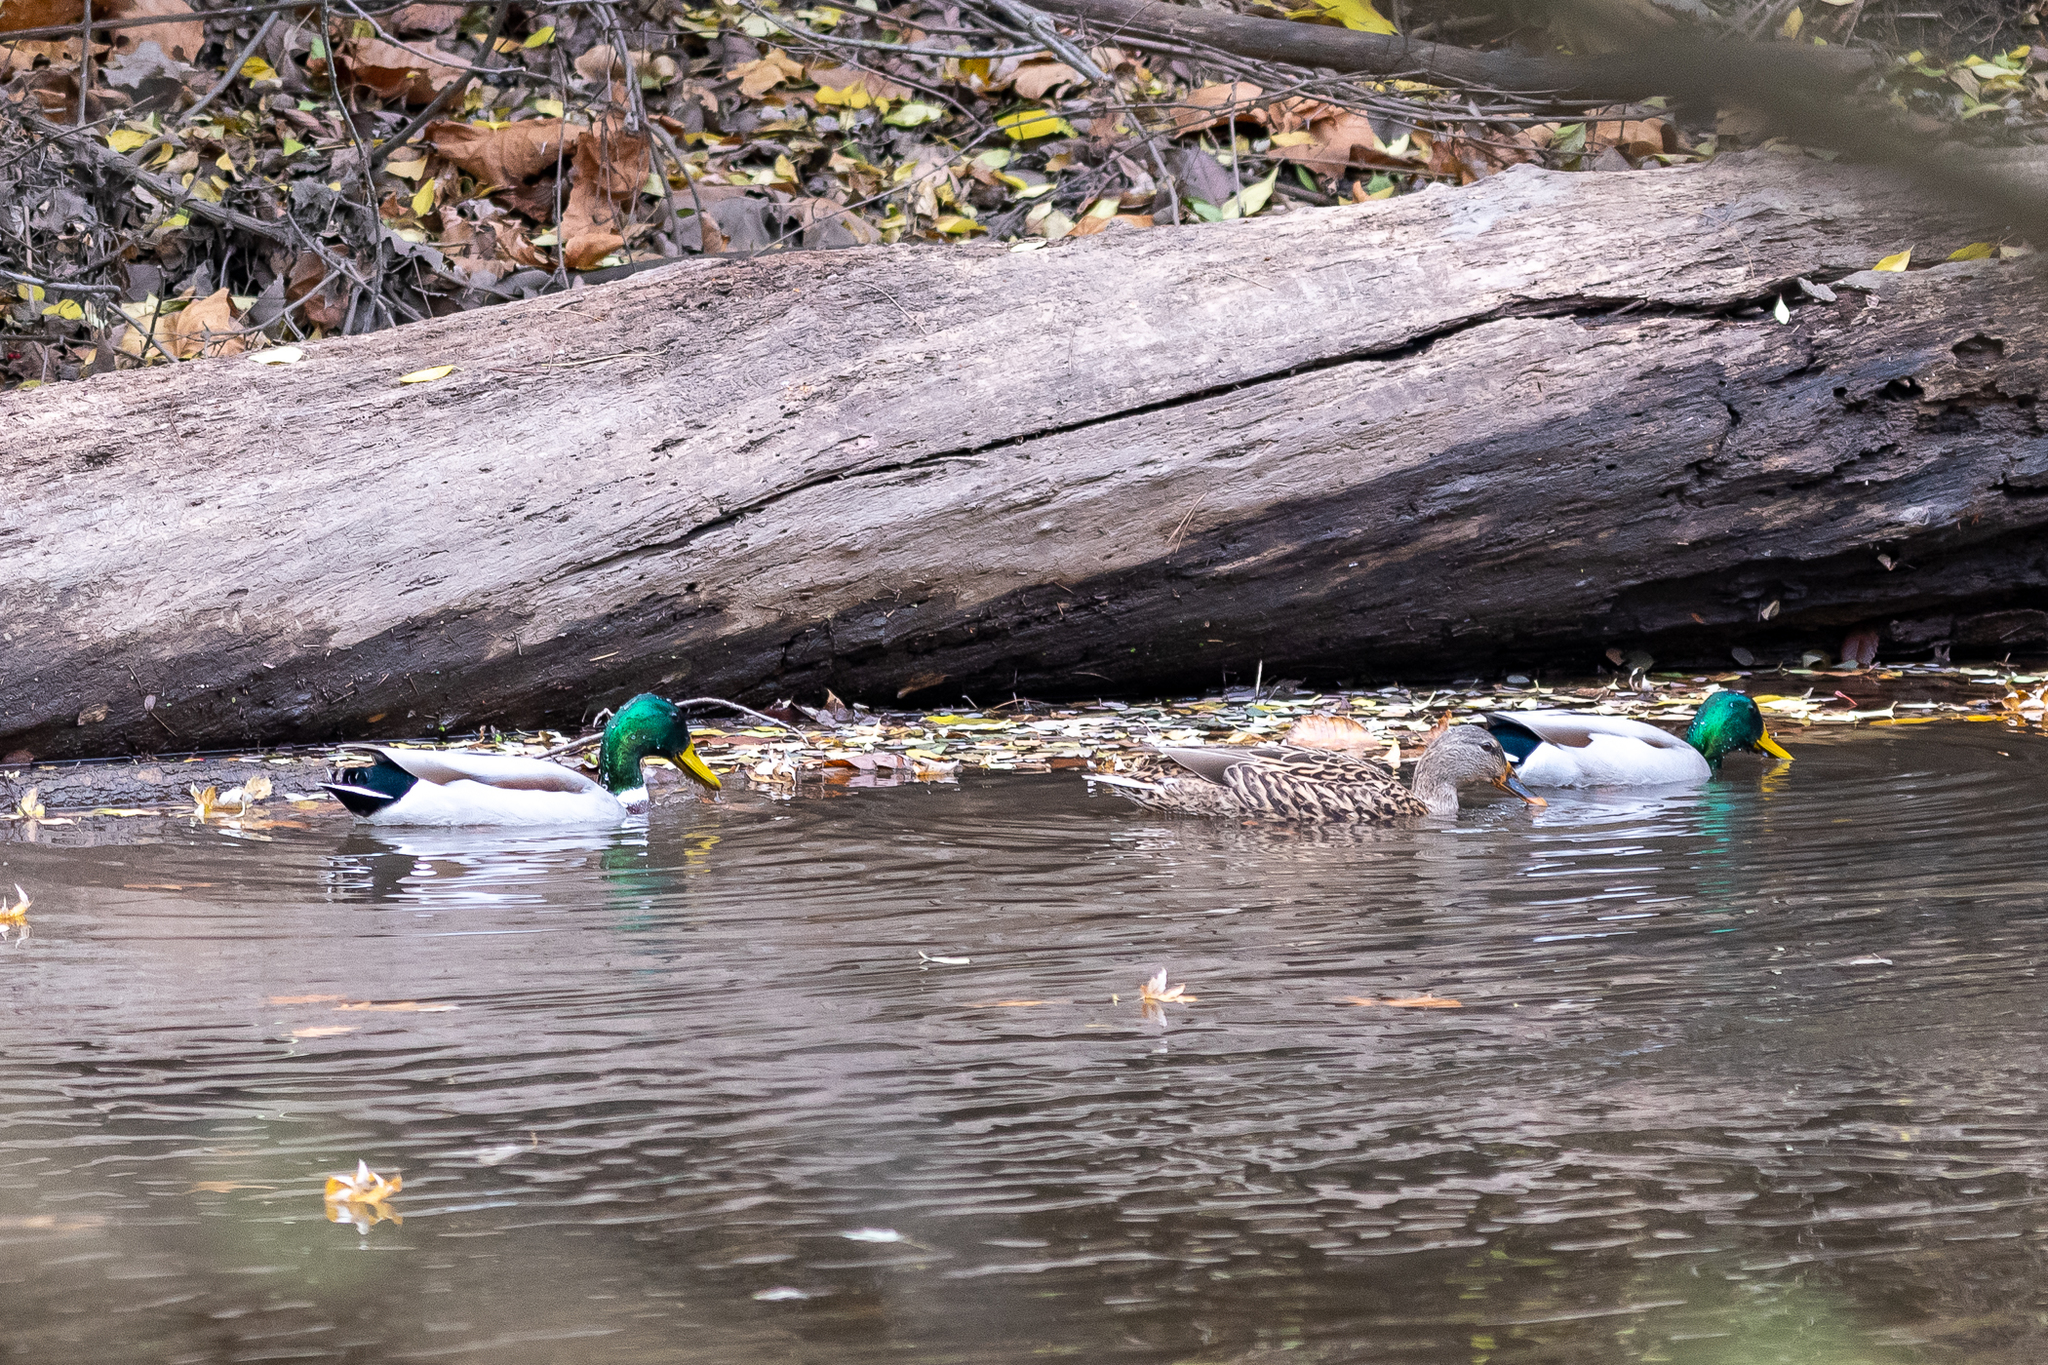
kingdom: Animalia
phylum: Chordata
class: Aves
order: Anseriformes
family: Anatidae
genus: Anas
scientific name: Anas platyrhynchos
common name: Mallard
